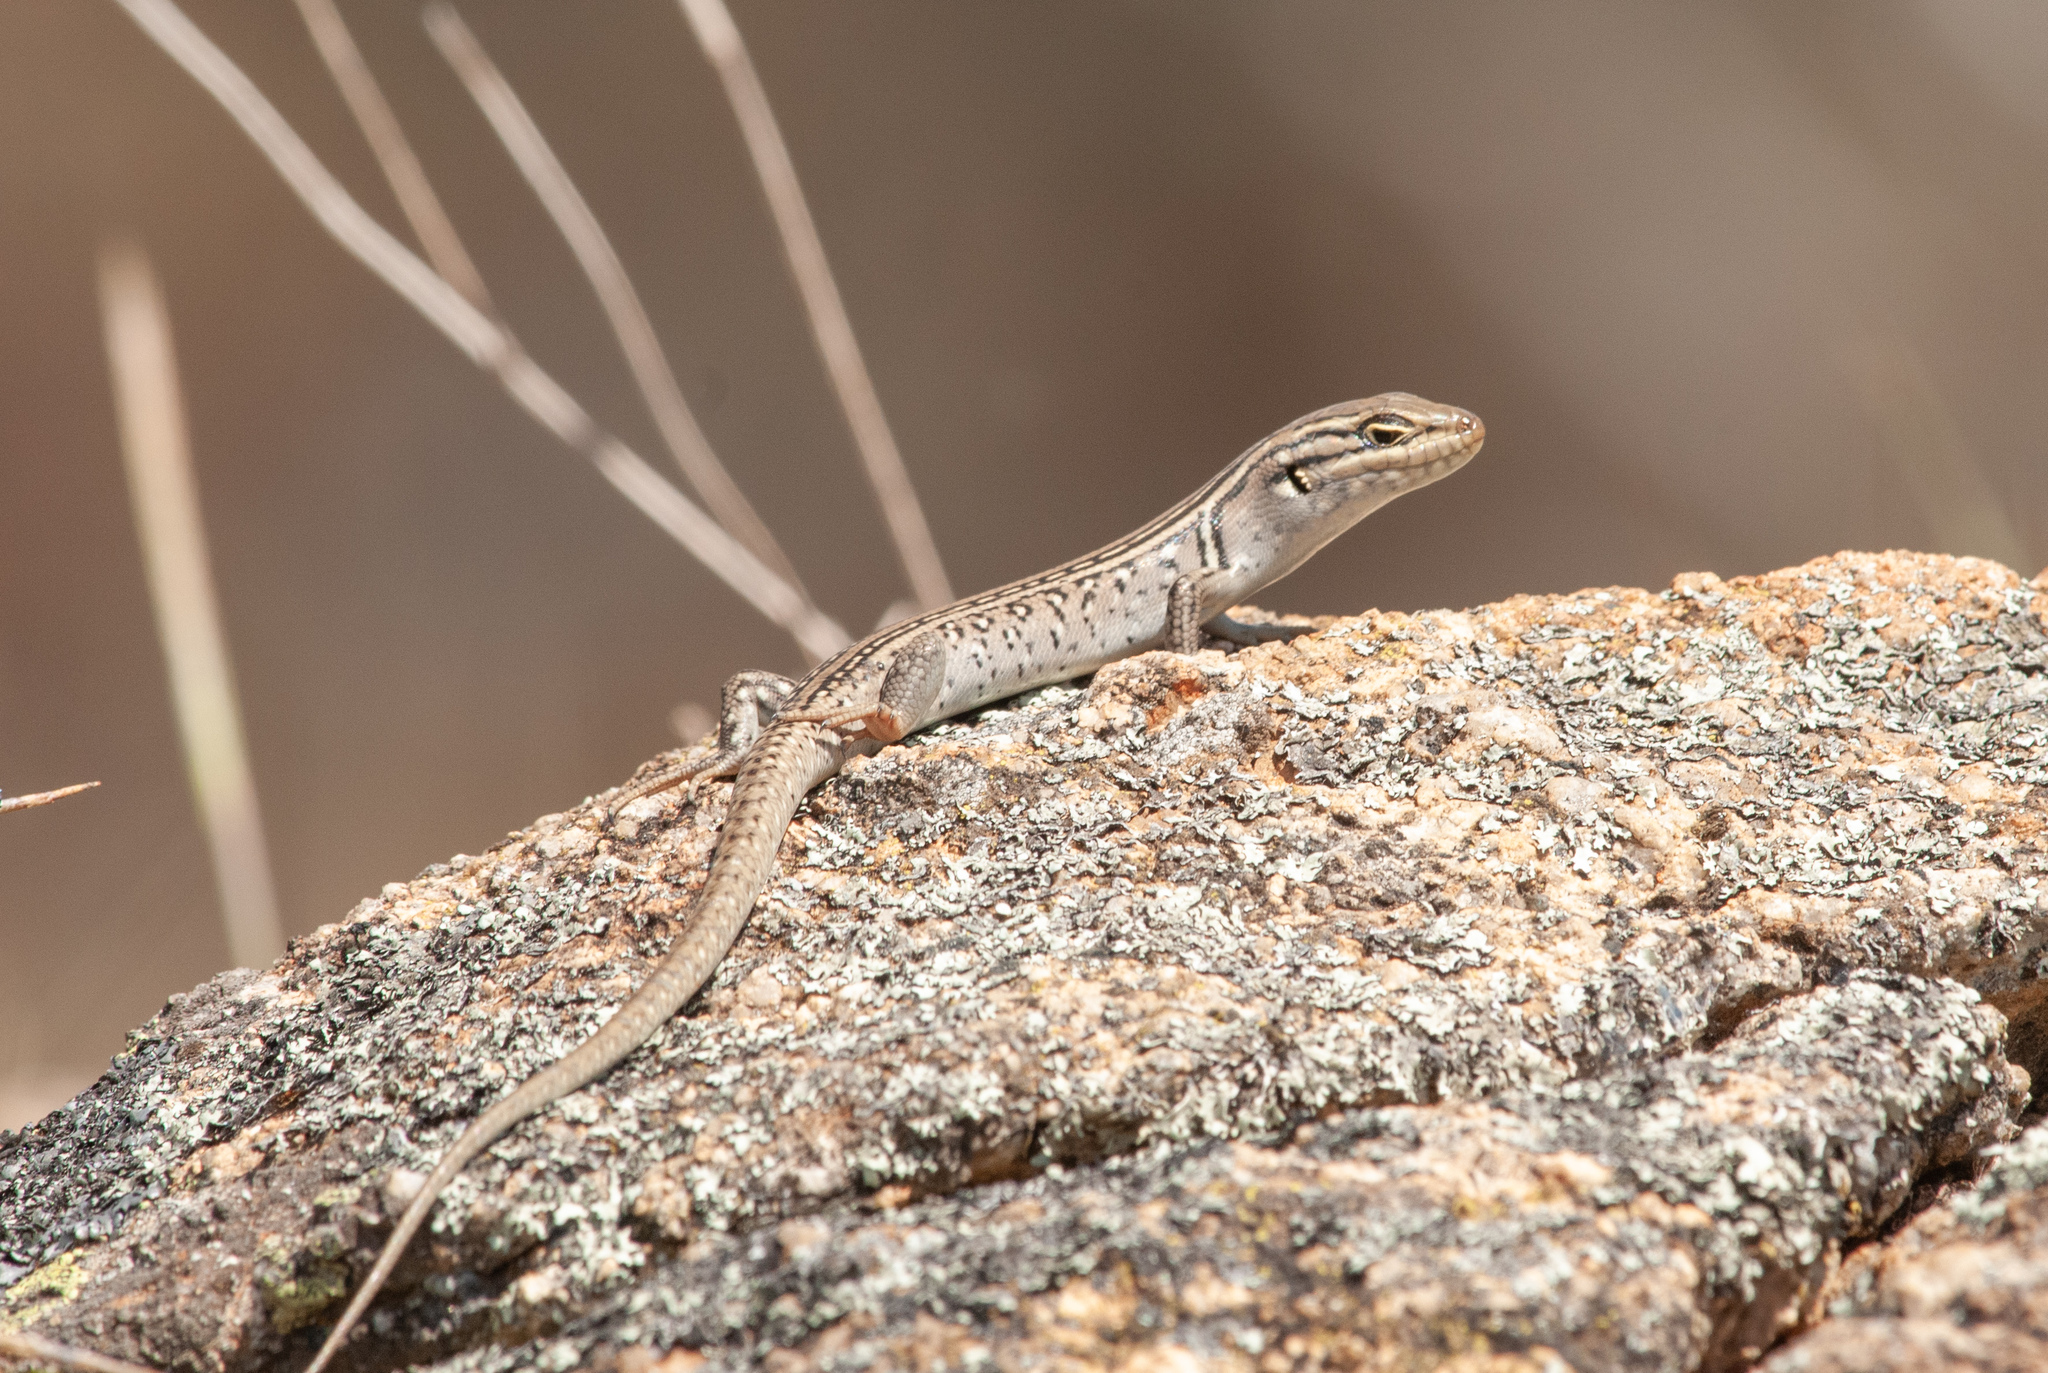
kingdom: Animalia
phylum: Chordata
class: Squamata
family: Scincidae
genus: Liopholis
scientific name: Liopholis whitii
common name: White's rock-skink
